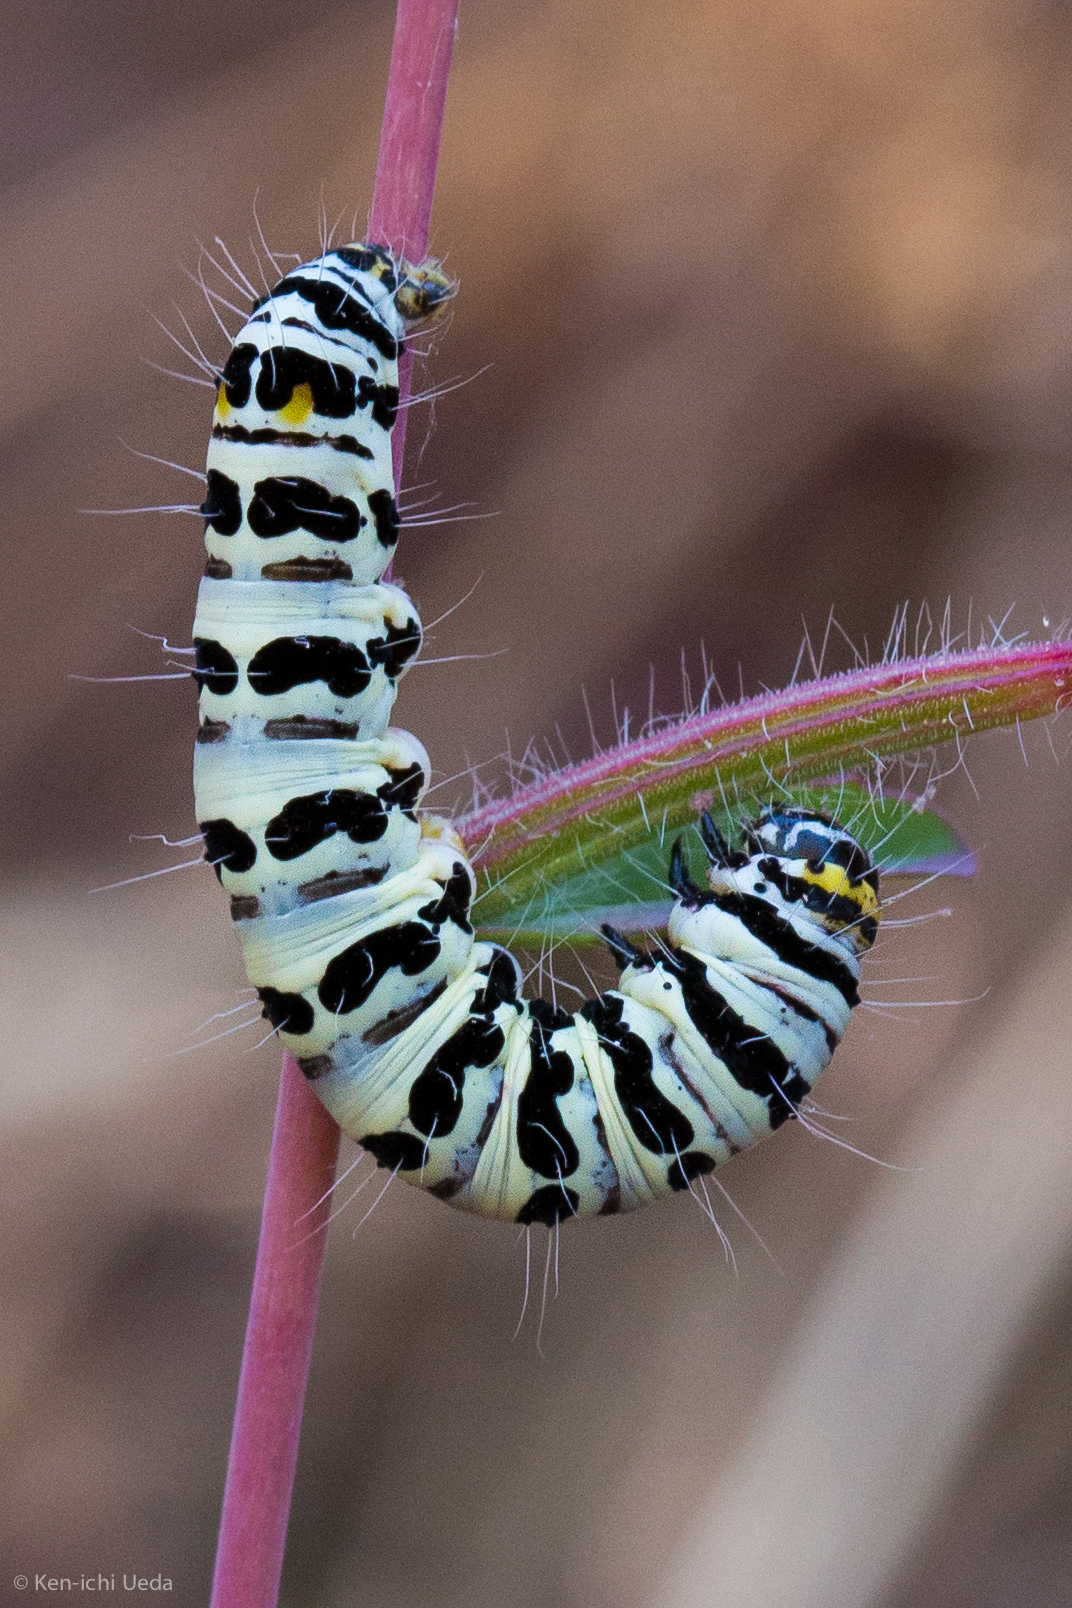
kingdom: Animalia
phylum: Arthropoda
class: Insecta
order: Lepidoptera
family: Noctuidae
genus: Alypia
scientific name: Alypia mariposa
